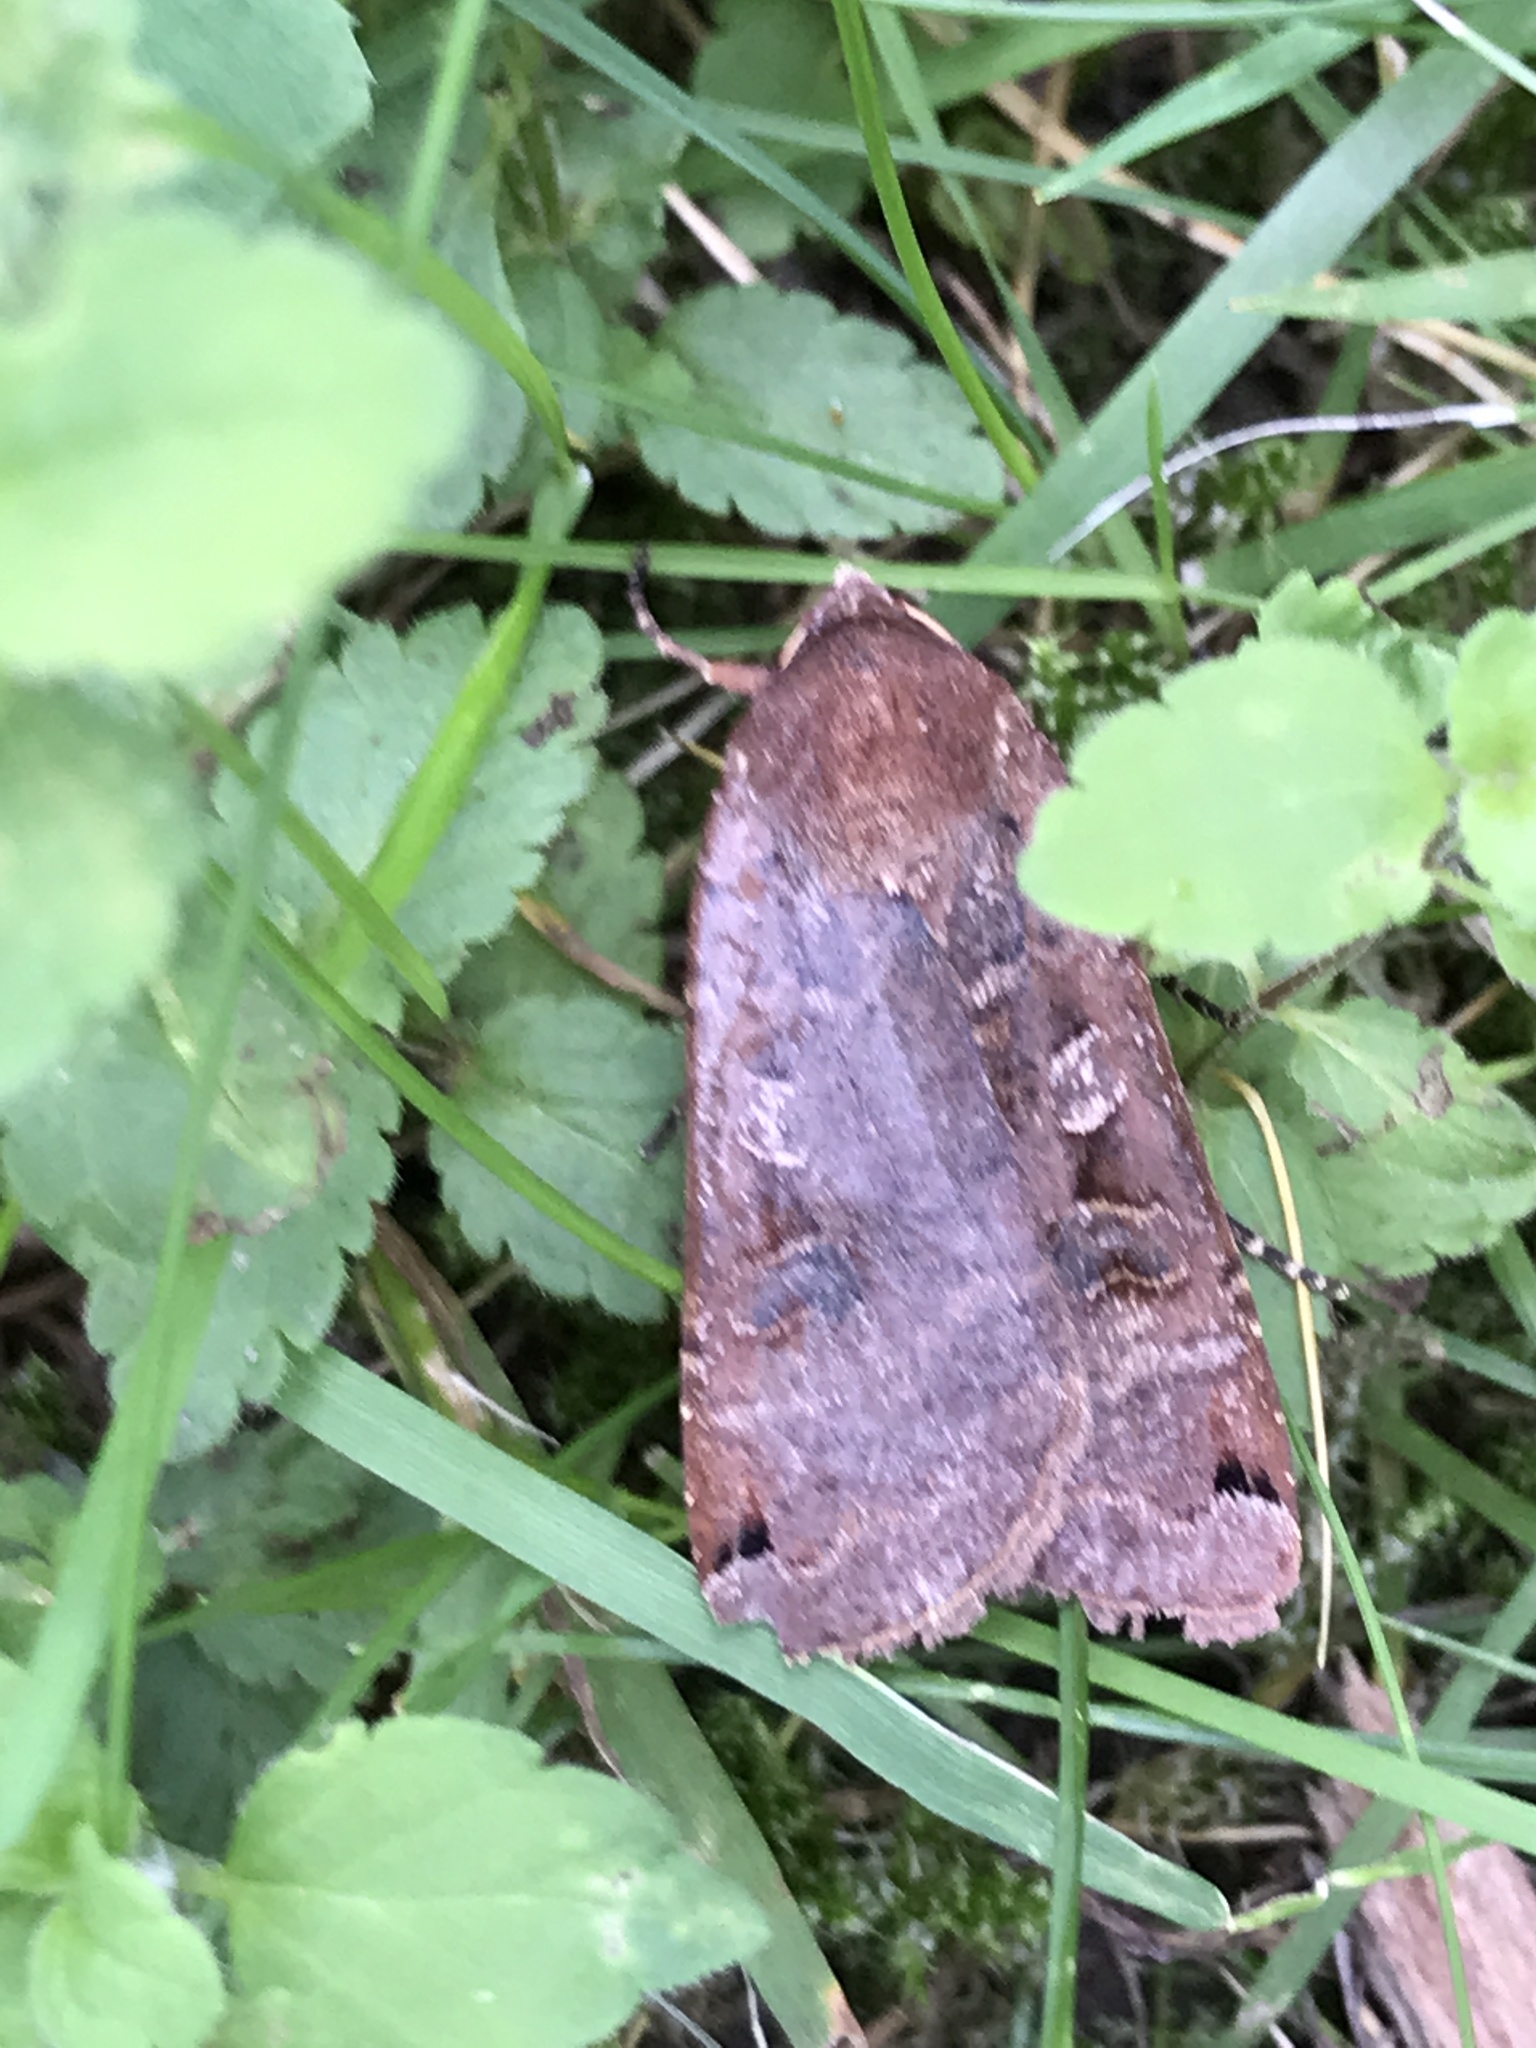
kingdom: Animalia
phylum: Arthropoda
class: Insecta
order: Lepidoptera
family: Noctuidae
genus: Noctua
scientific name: Noctua pronuba
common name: Large yellow underwing
